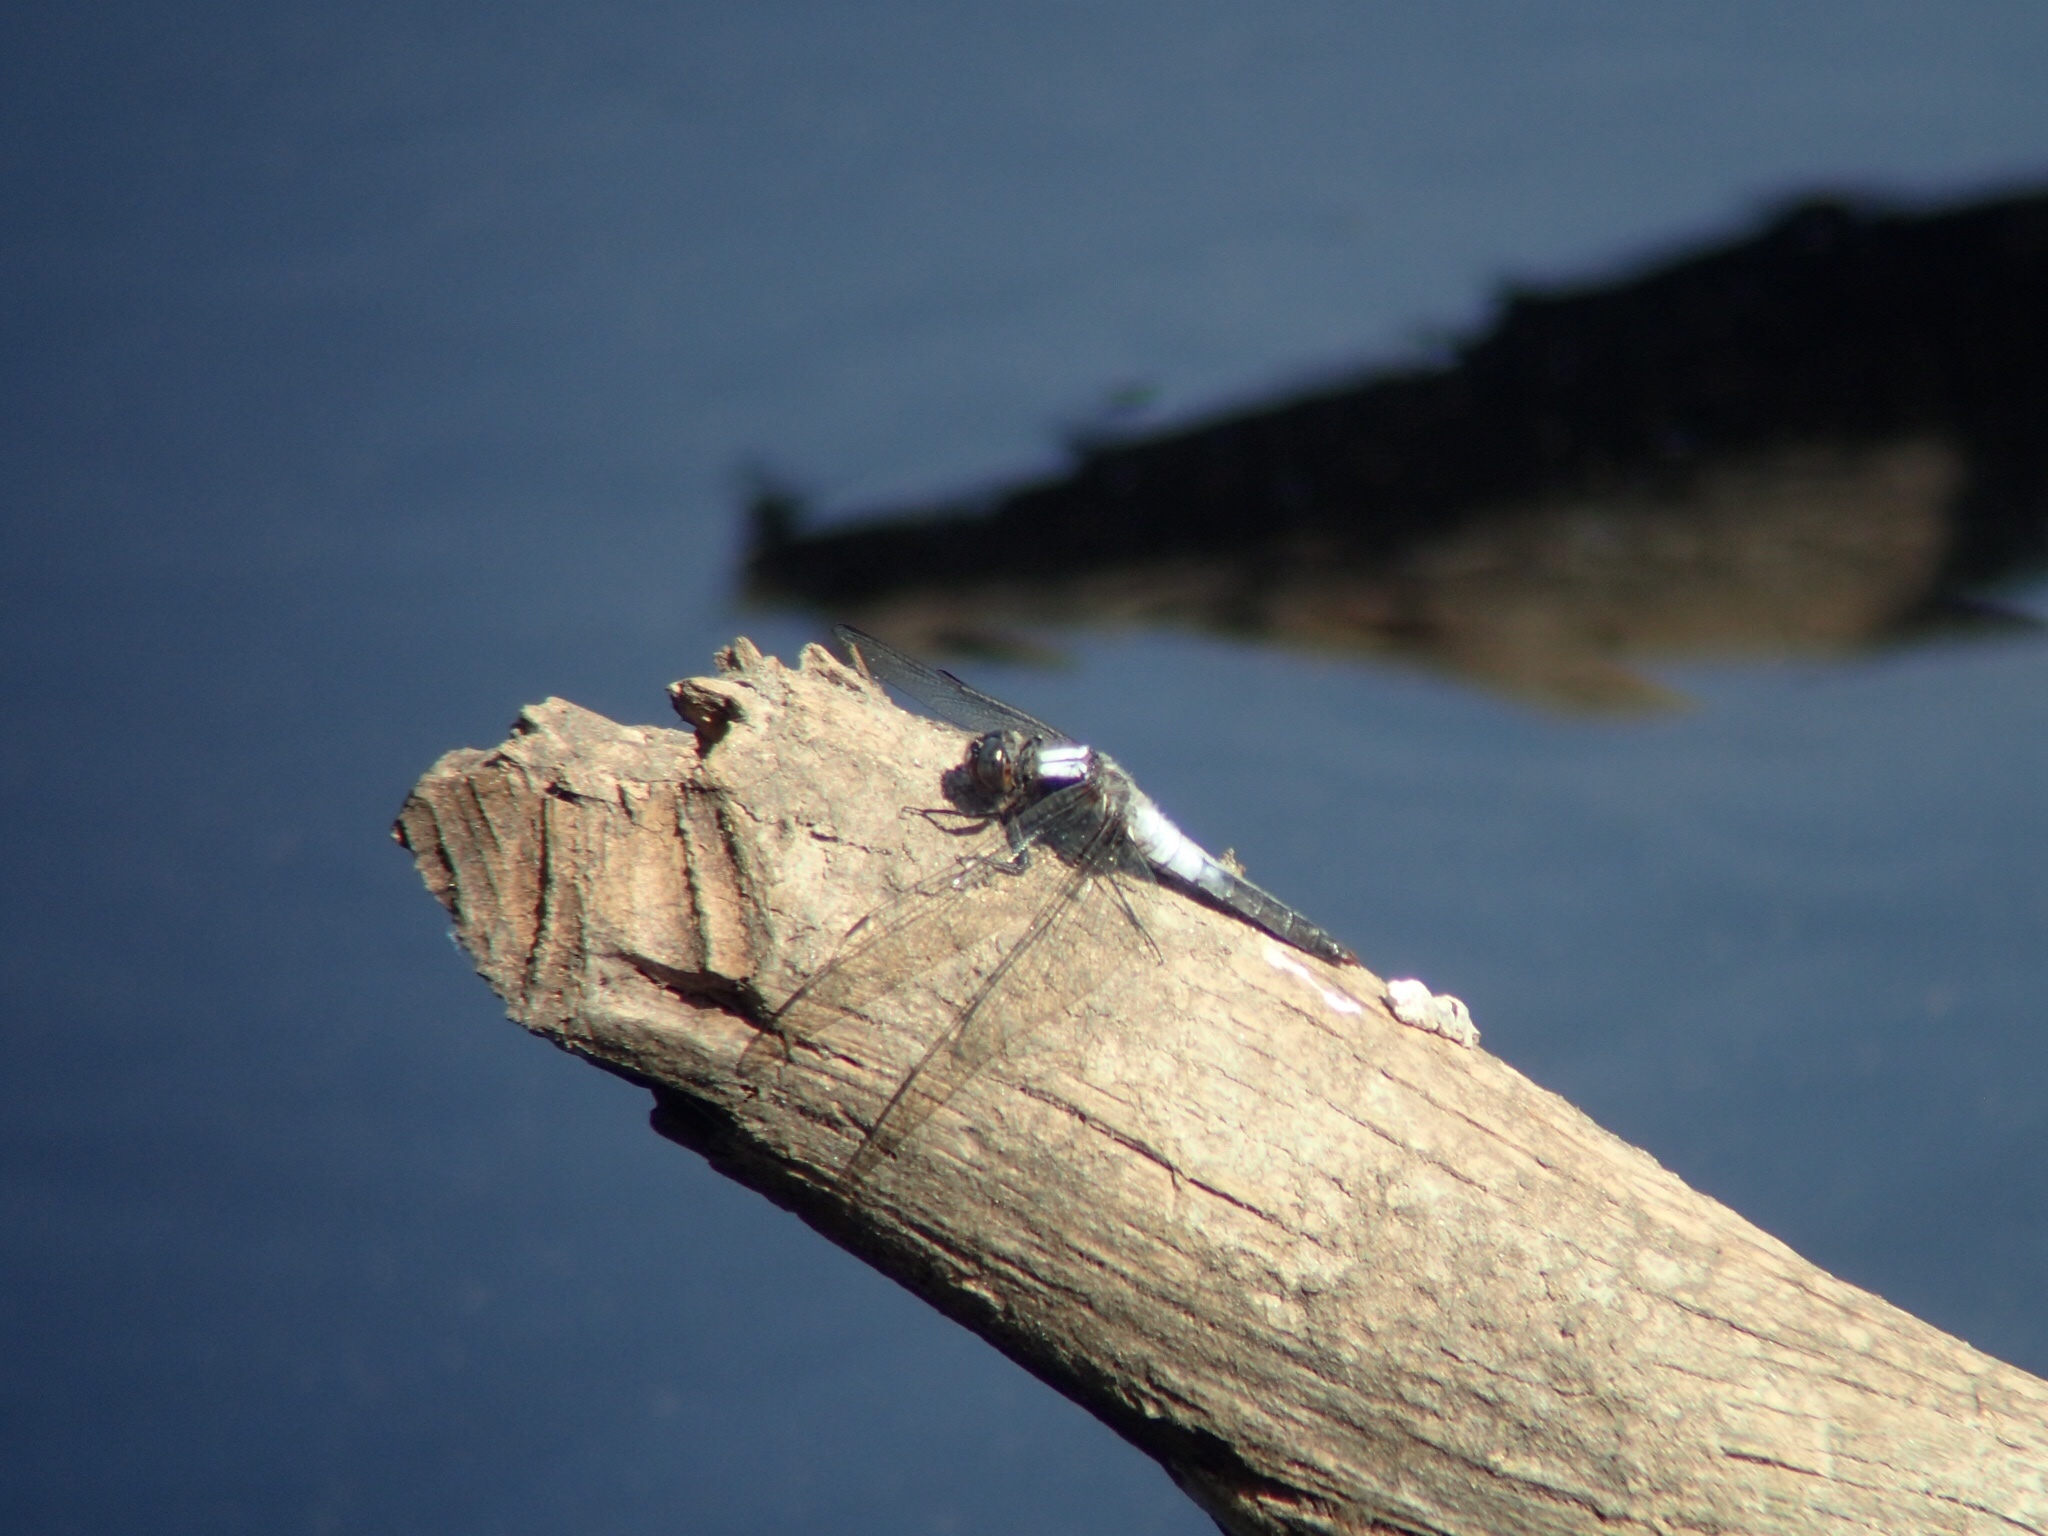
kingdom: Animalia
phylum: Arthropoda
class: Insecta
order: Odonata
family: Libellulidae
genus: Ladona
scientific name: Ladona julia
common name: Chalk-fronted corporal
